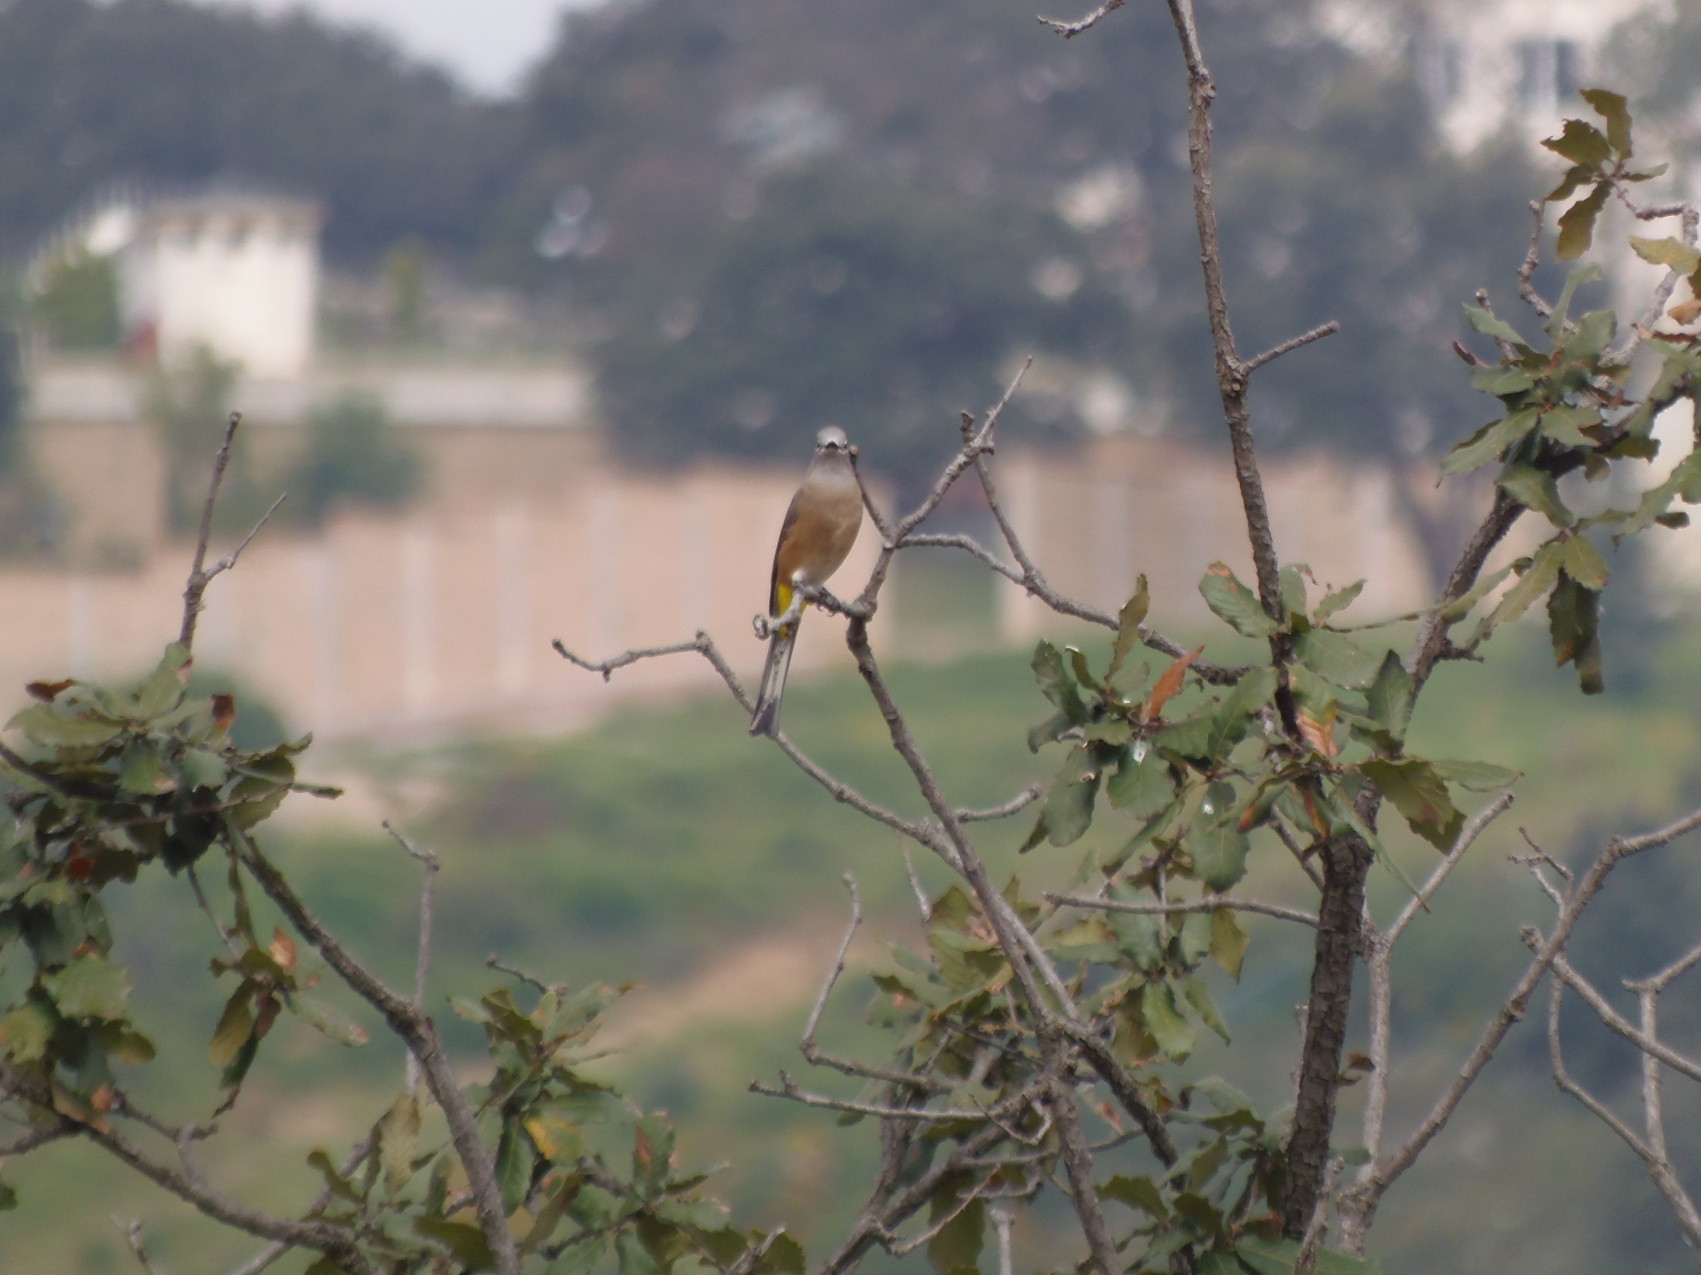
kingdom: Animalia
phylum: Chordata
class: Aves
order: Passeriformes
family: Ptilogonatidae
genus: Ptilogonys
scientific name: Ptilogonys cinereus
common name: Gray silky-flycatcher
